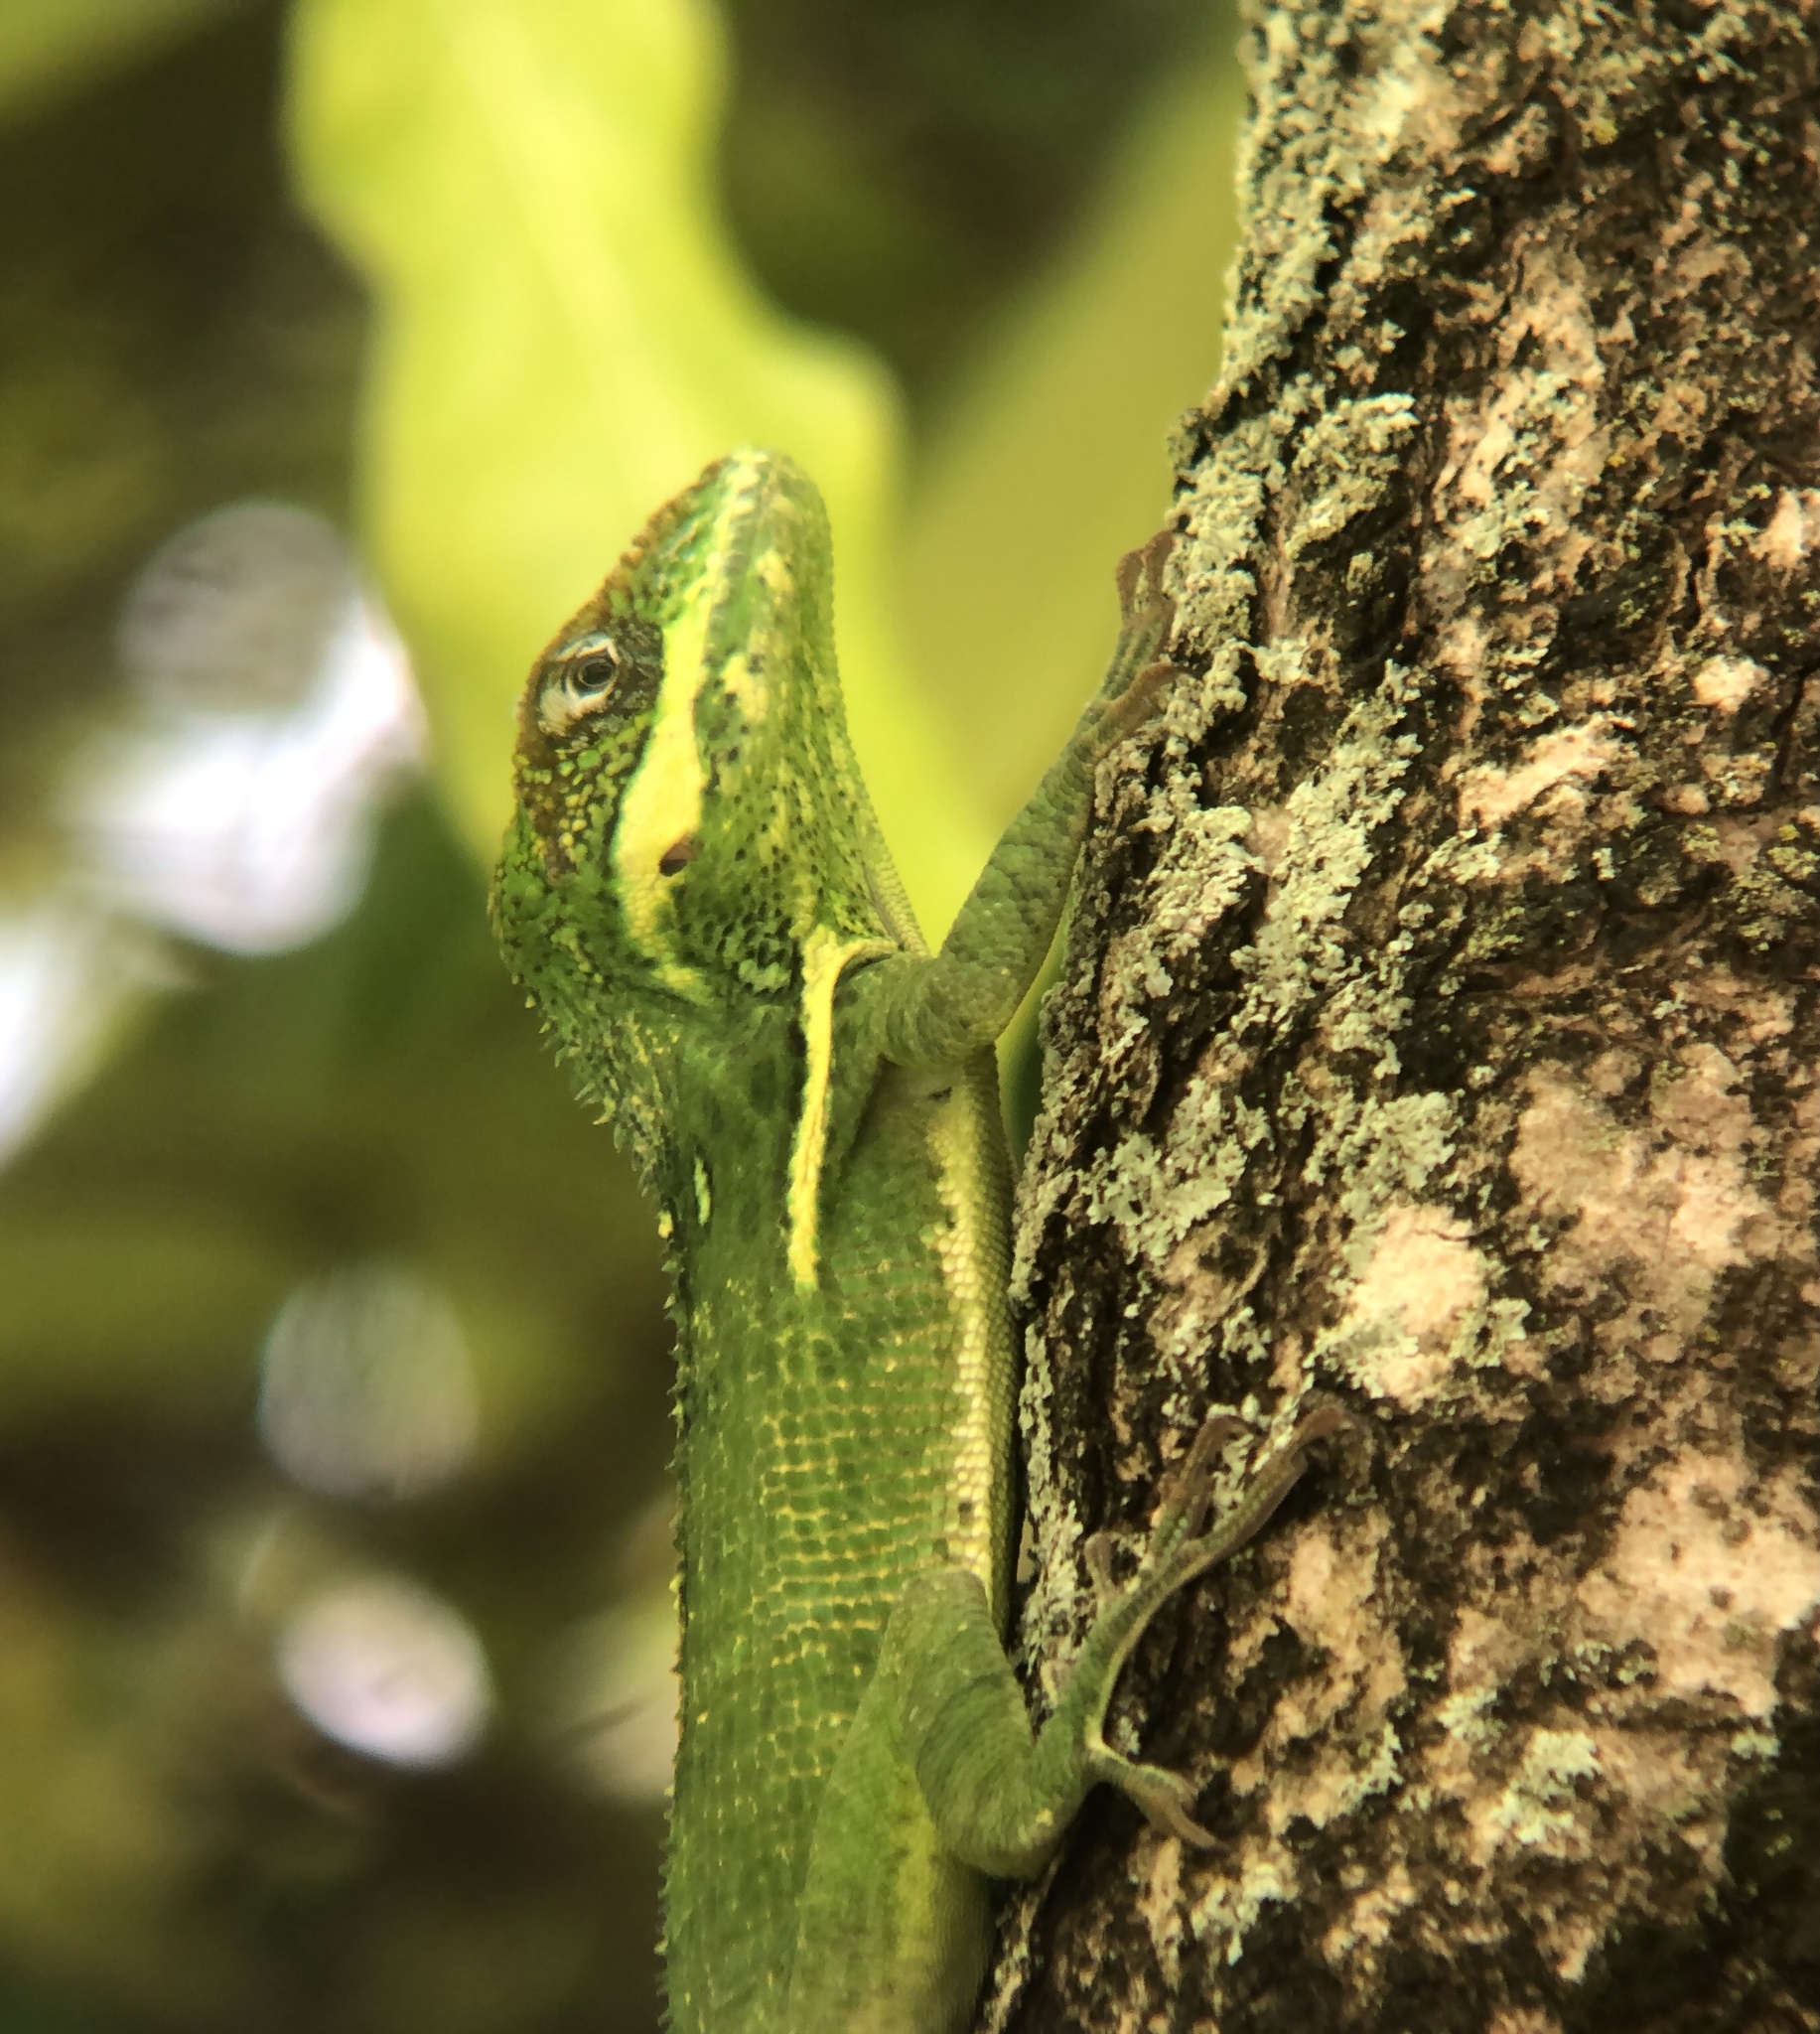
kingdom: Animalia
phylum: Chordata
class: Squamata
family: Dactyloidae
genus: Anolis
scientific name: Anolis equestris
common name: Knight anole
